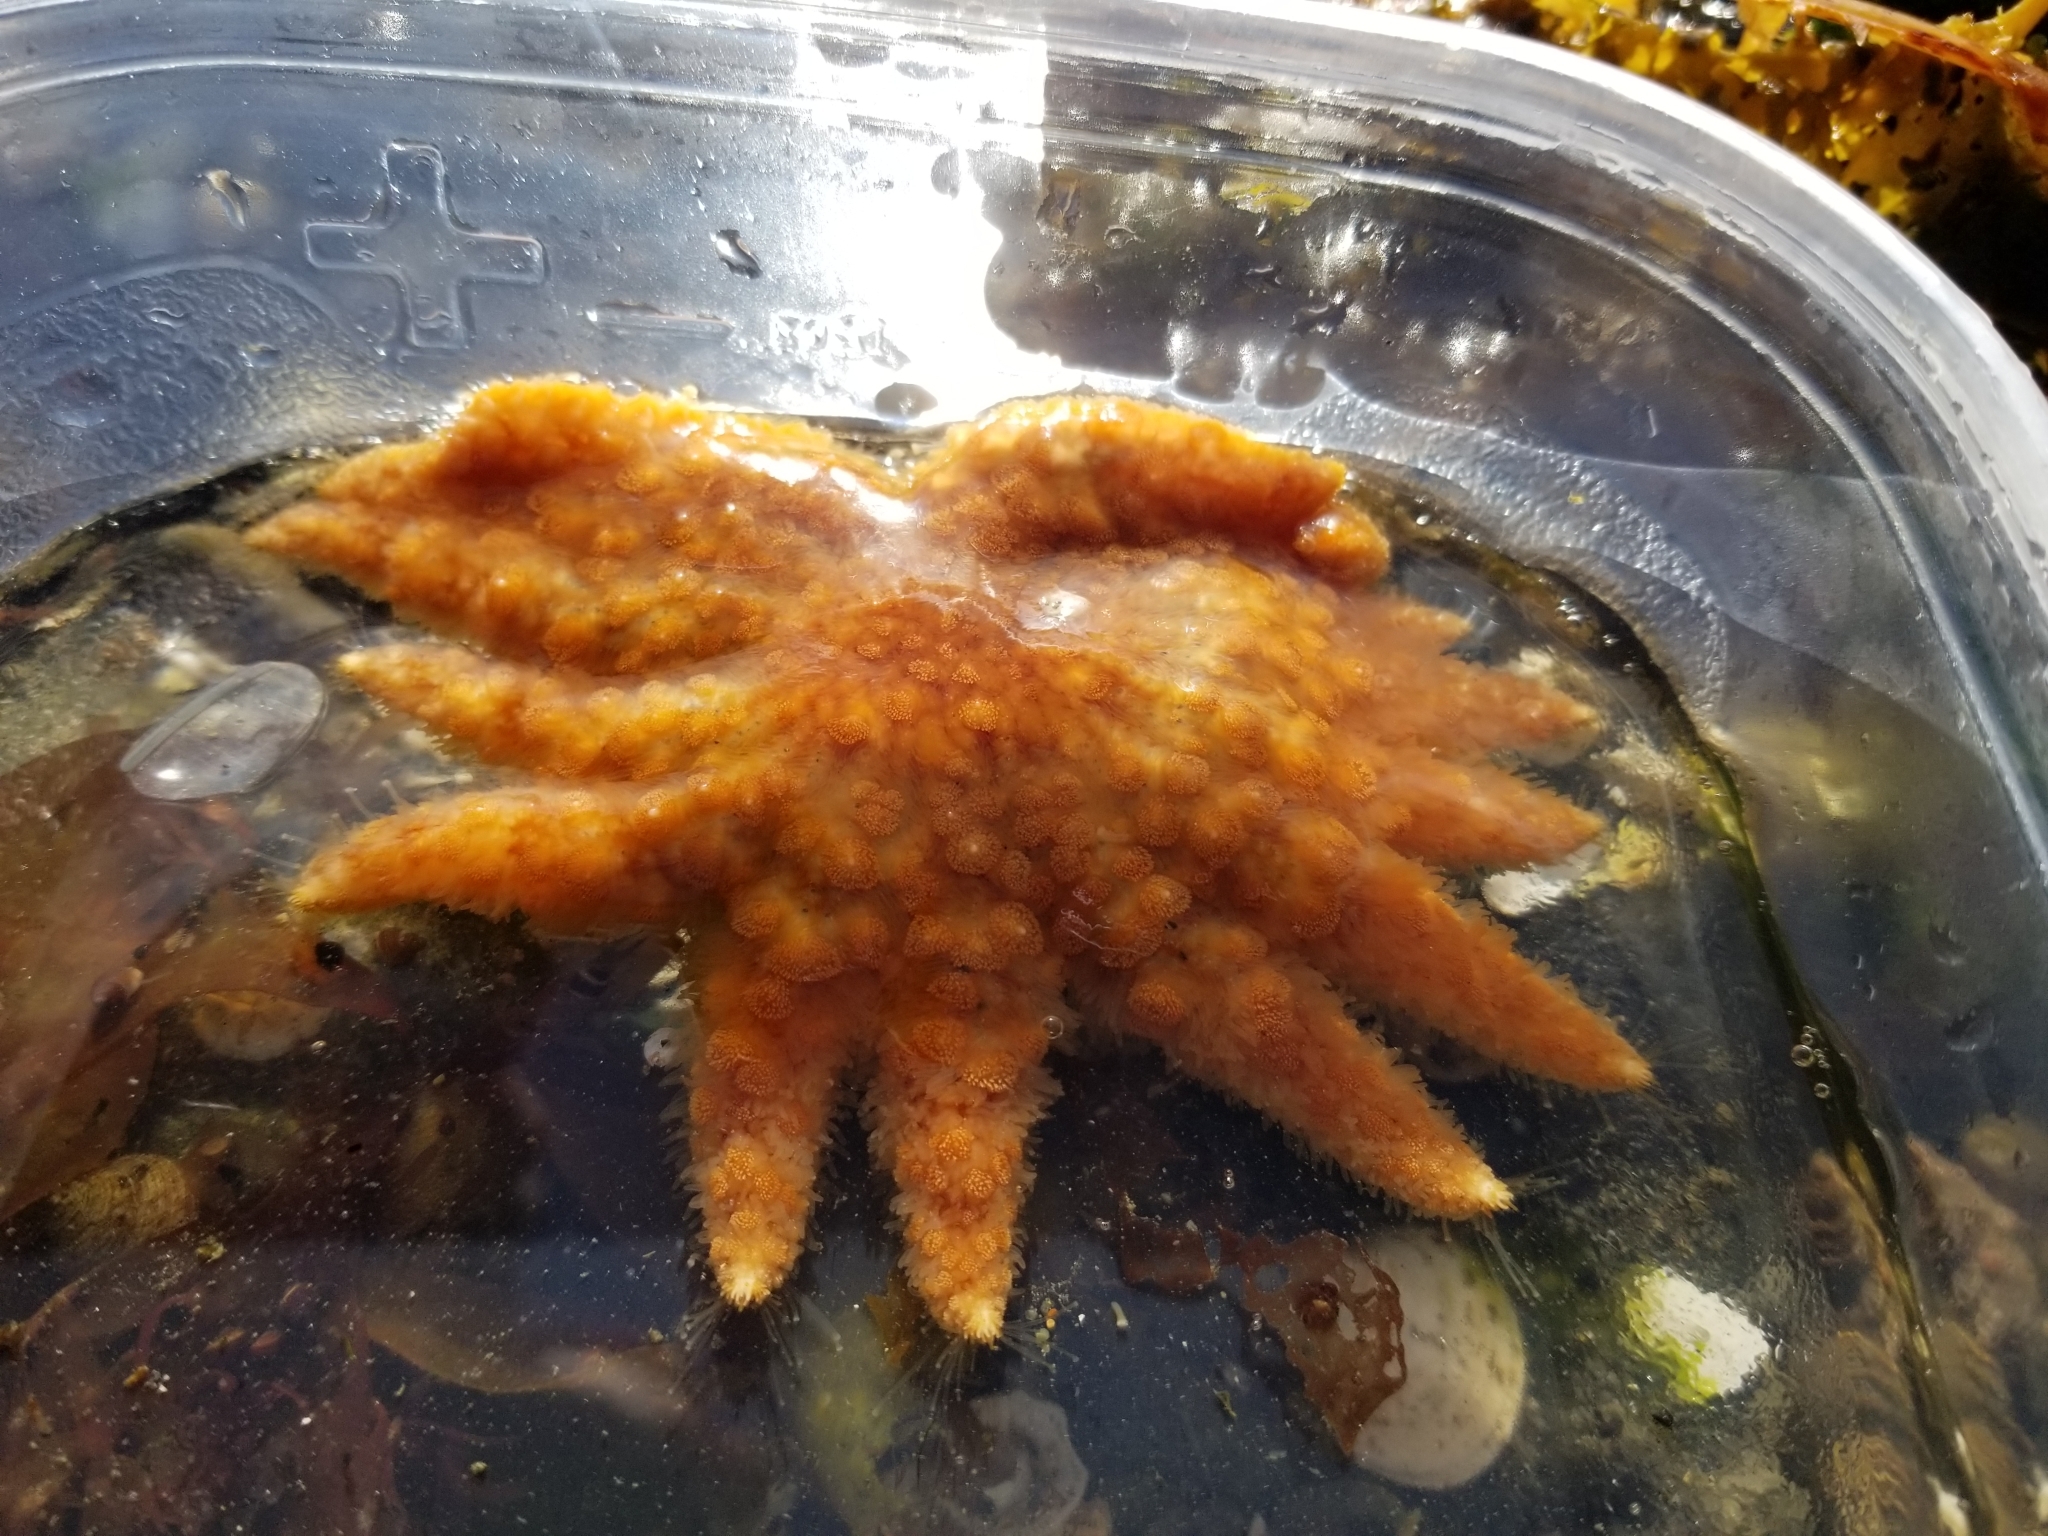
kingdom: Animalia
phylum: Echinodermata
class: Asteroidea
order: Forcipulatida
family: Asteriidae
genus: Pycnopodia
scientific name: Pycnopodia helianthoides
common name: Rag mop
